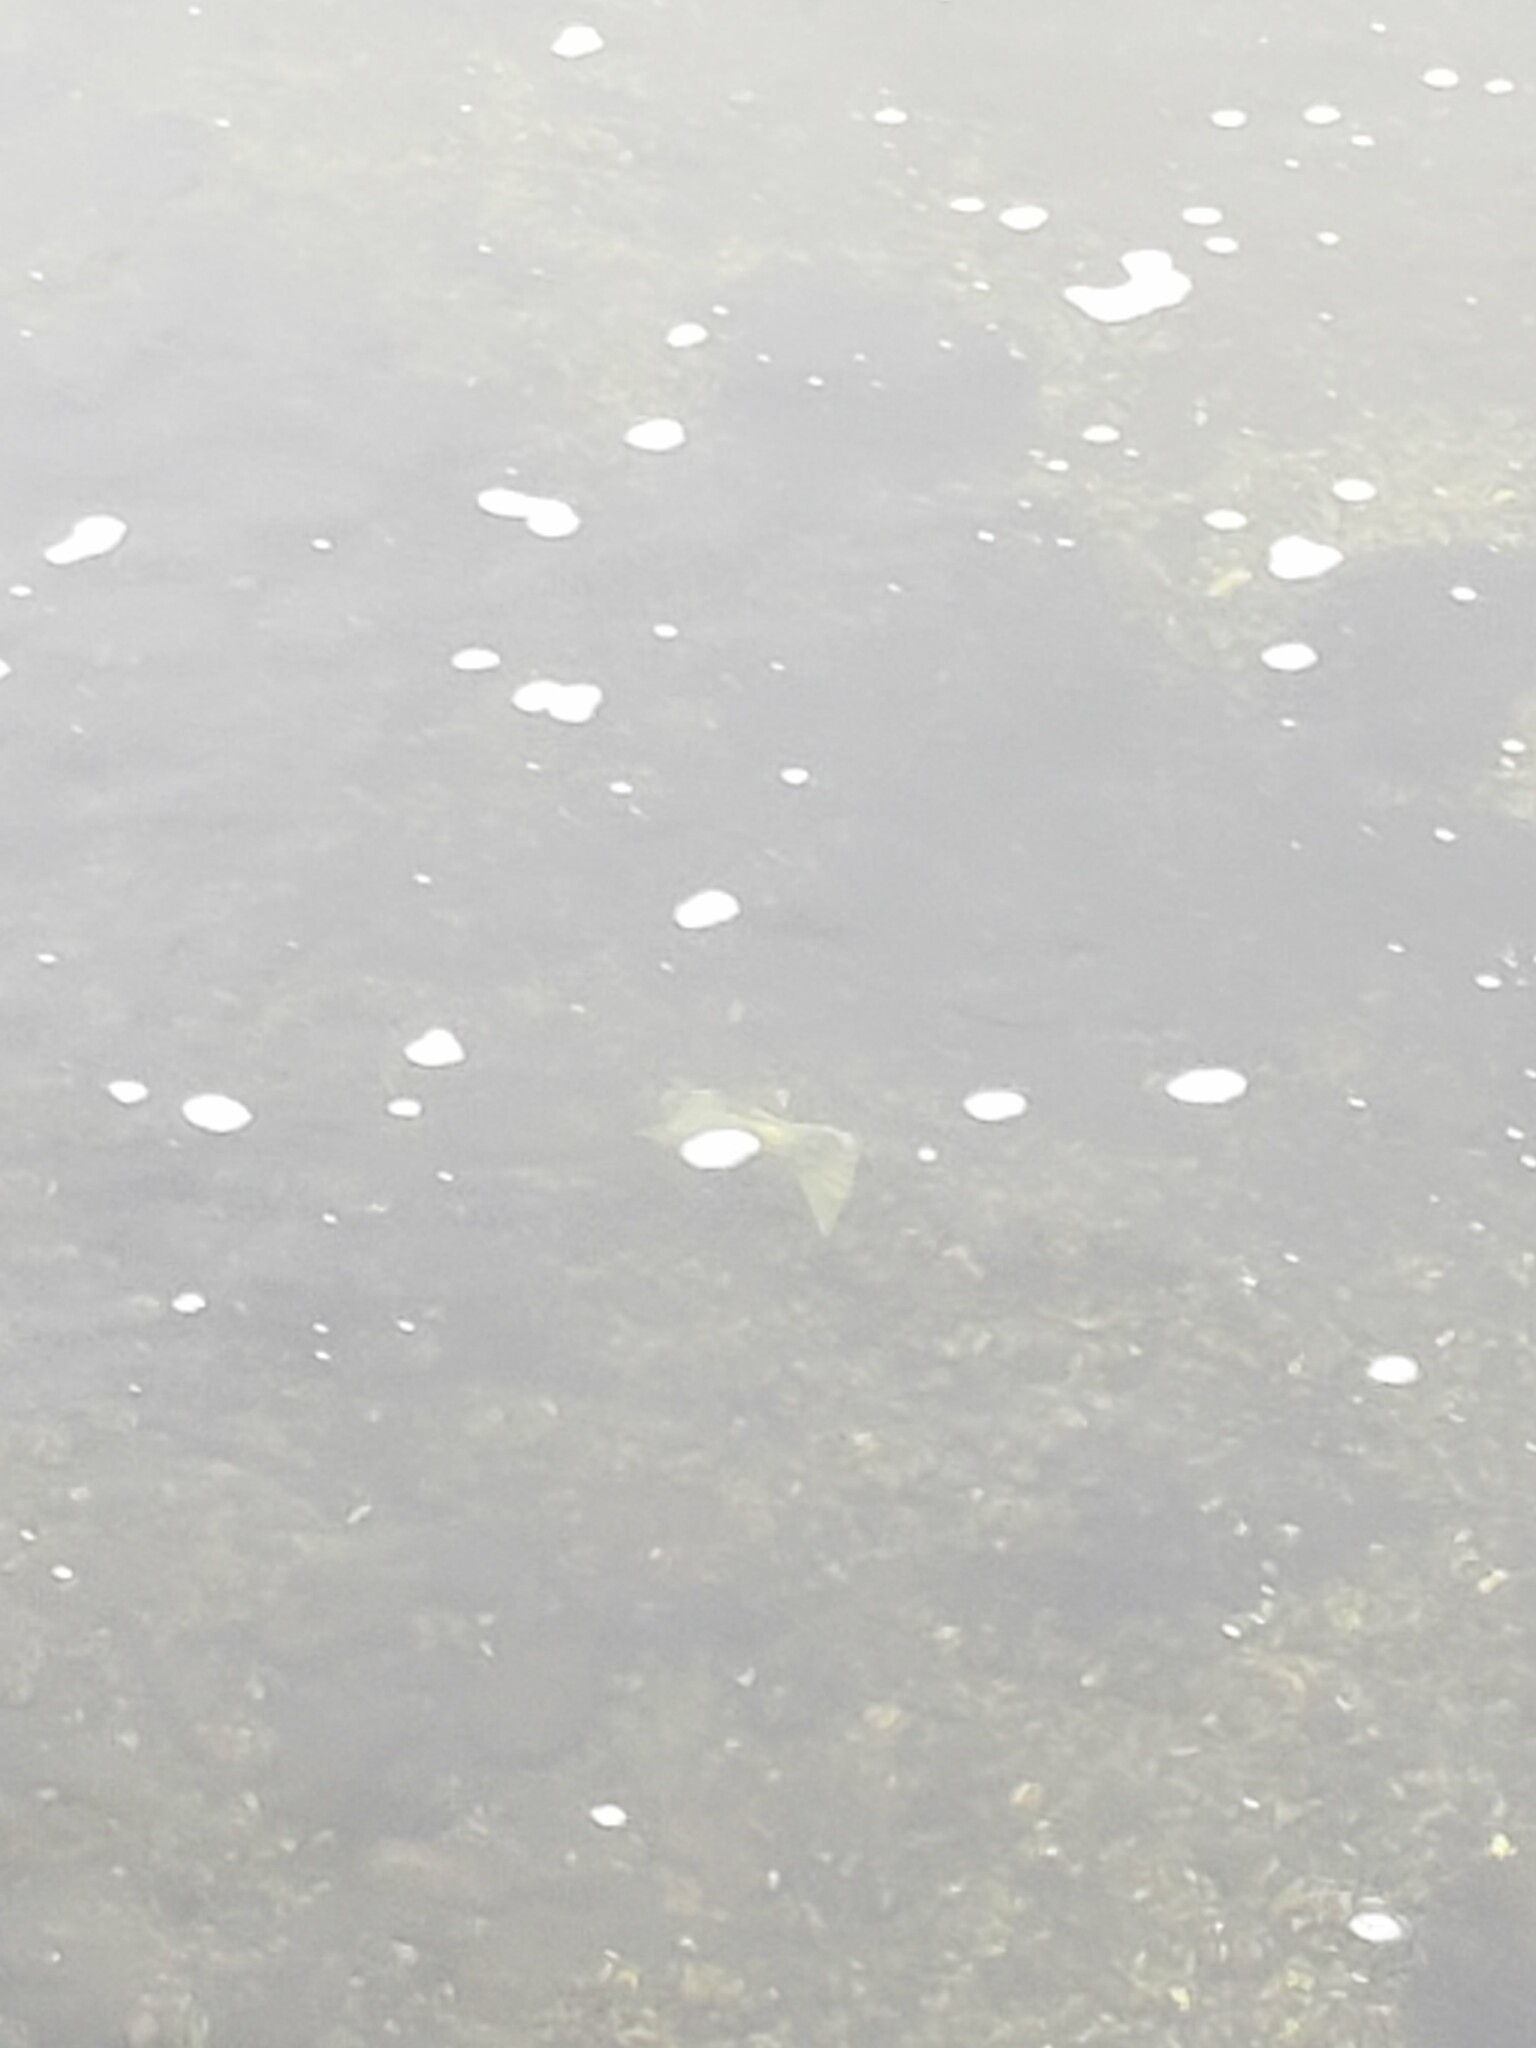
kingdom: Animalia
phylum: Chordata
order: Salmoniformes
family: Salmonidae
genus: Oncorhynchus
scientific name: Oncorhynchus tshawytscha
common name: Chinook salmon
